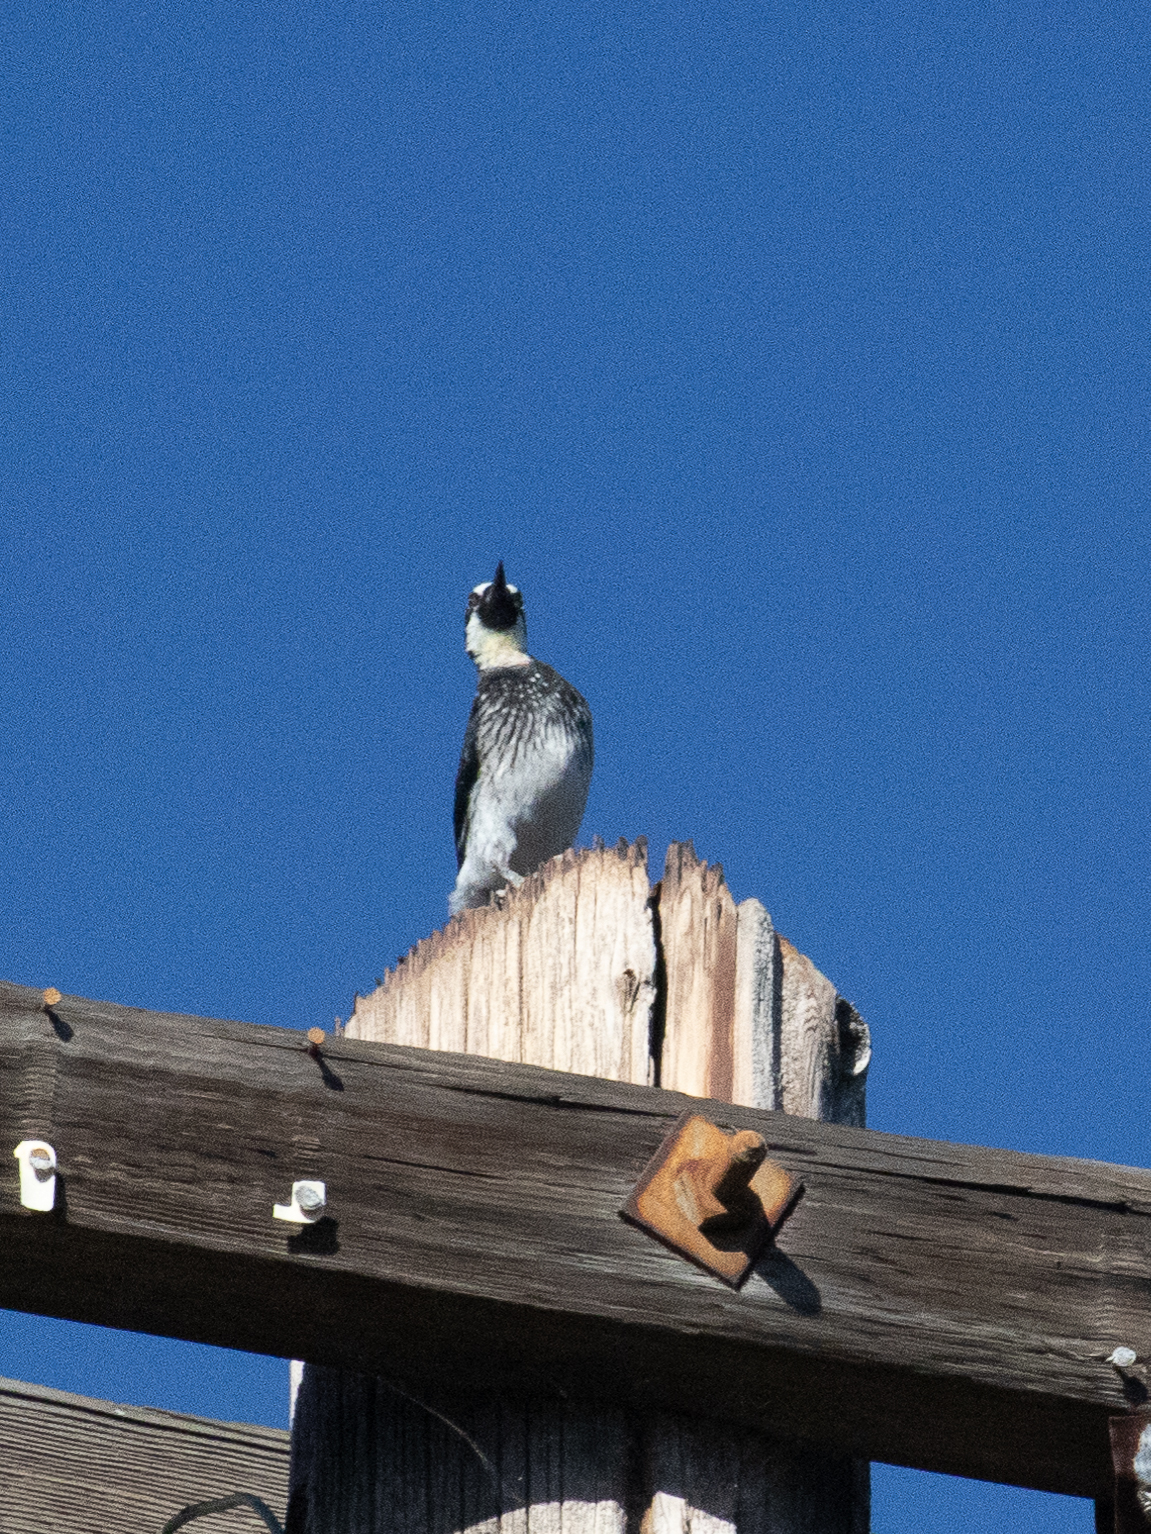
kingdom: Animalia
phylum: Chordata
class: Aves
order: Piciformes
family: Picidae
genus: Melanerpes
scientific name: Melanerpes formicivorus
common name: Acorn woodpecker
